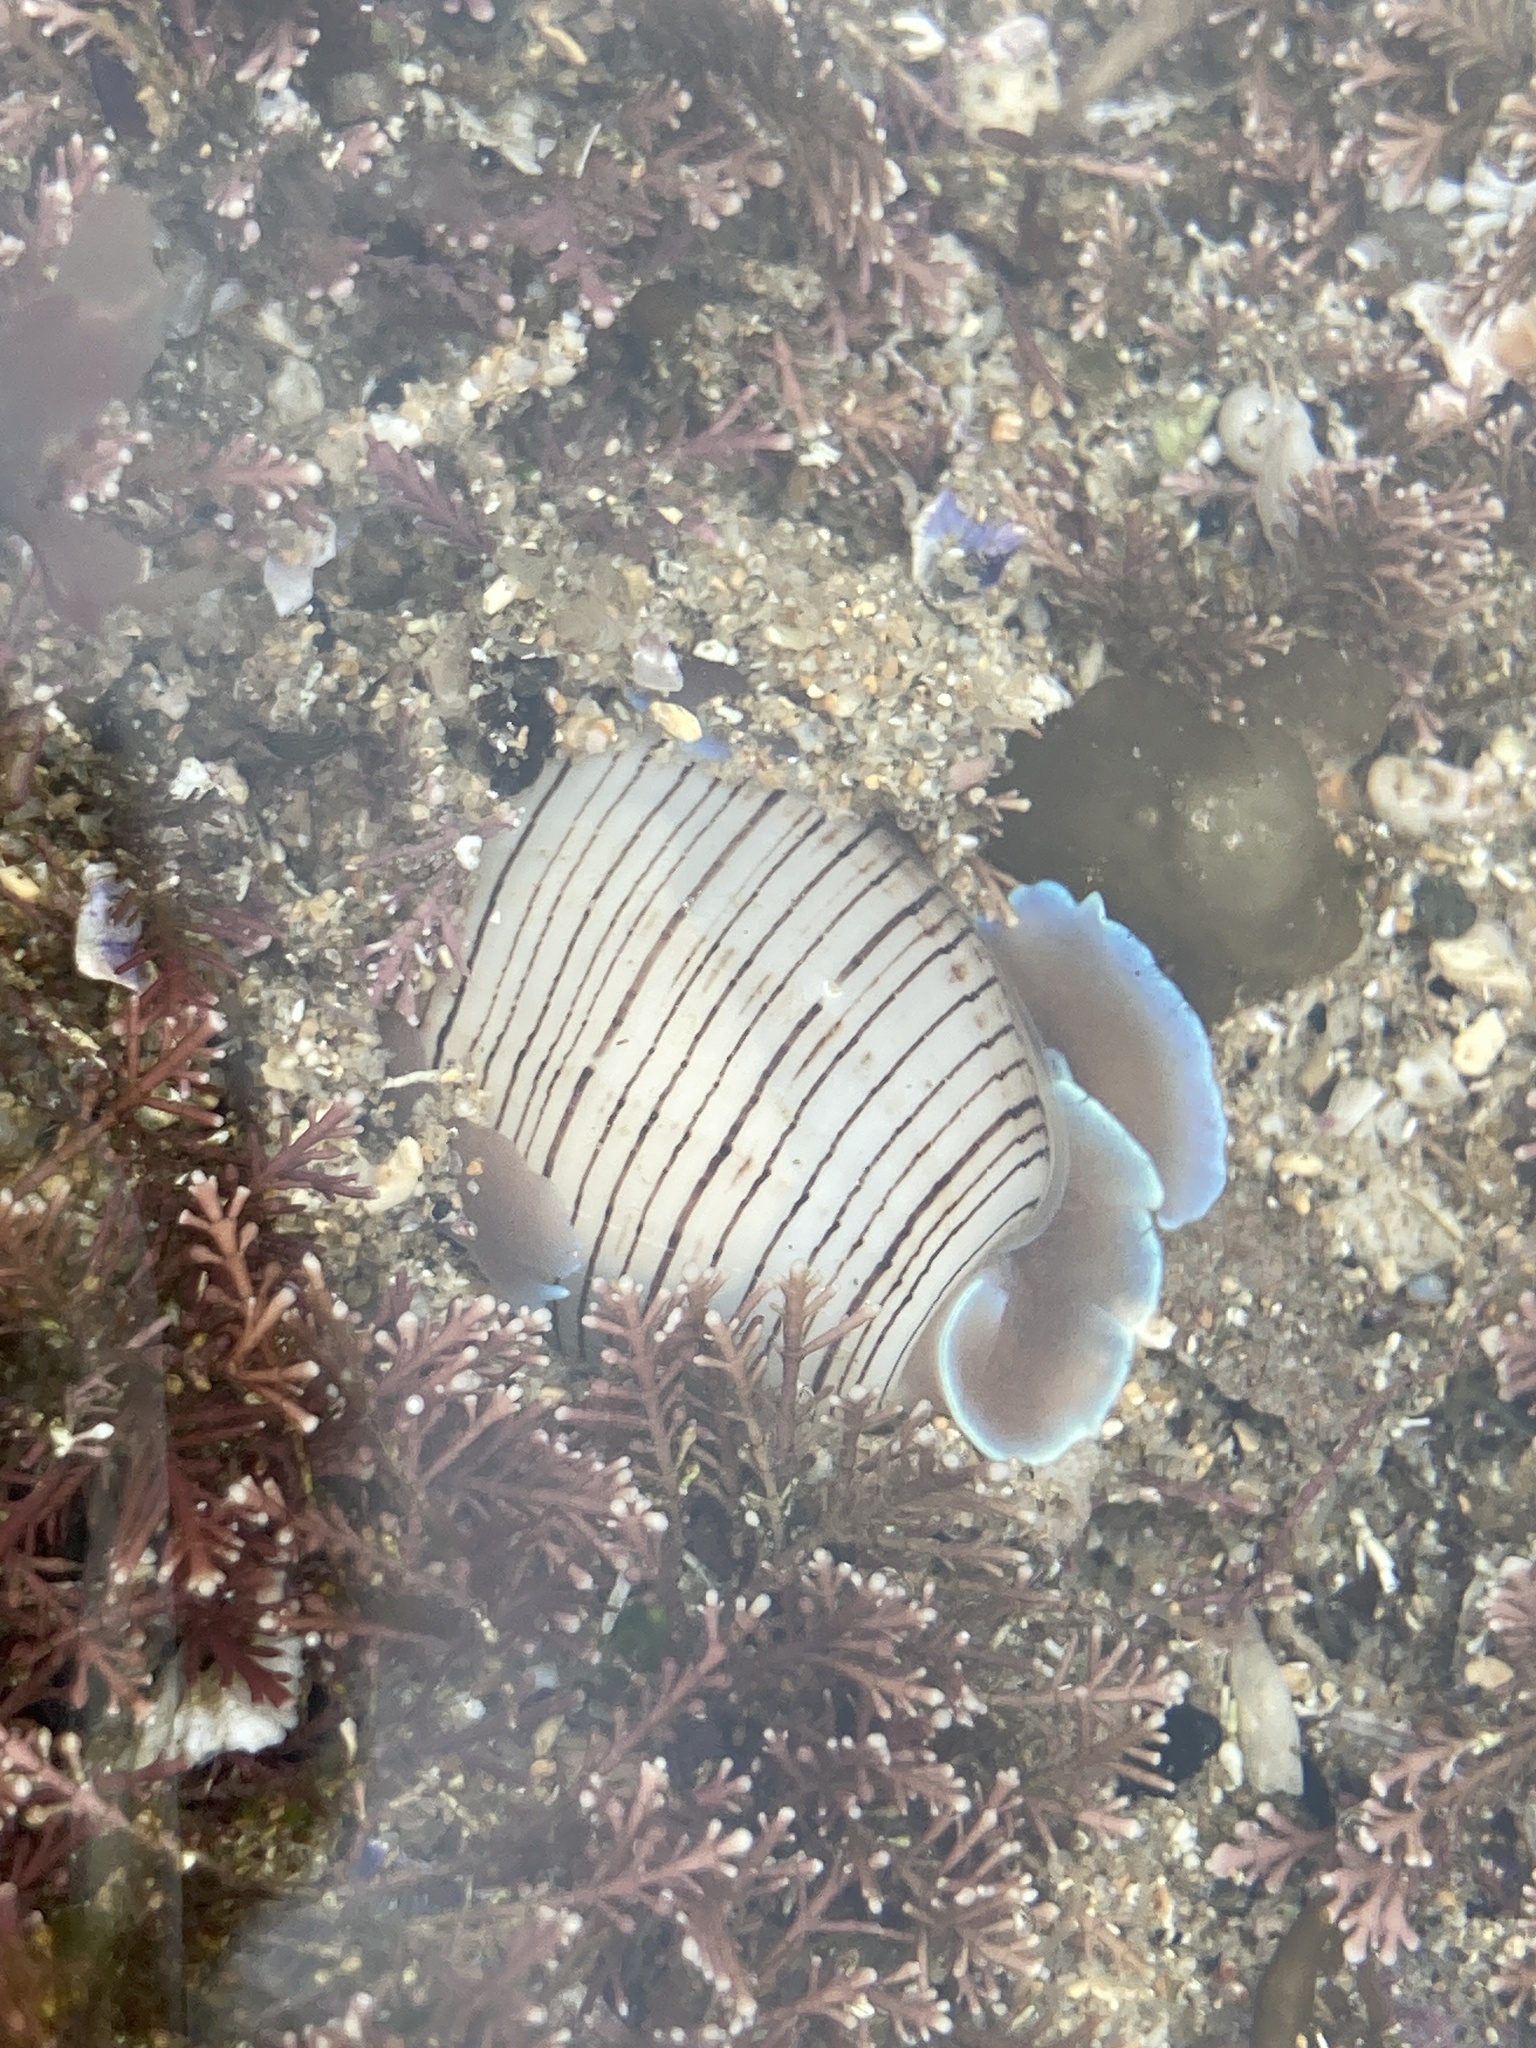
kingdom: Animalia
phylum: Mollusca
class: Gastropoda
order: Cephalaspidea
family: Aplustridae
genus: Hydatina
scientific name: Hydatina physis
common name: Brown-line paperbubble
